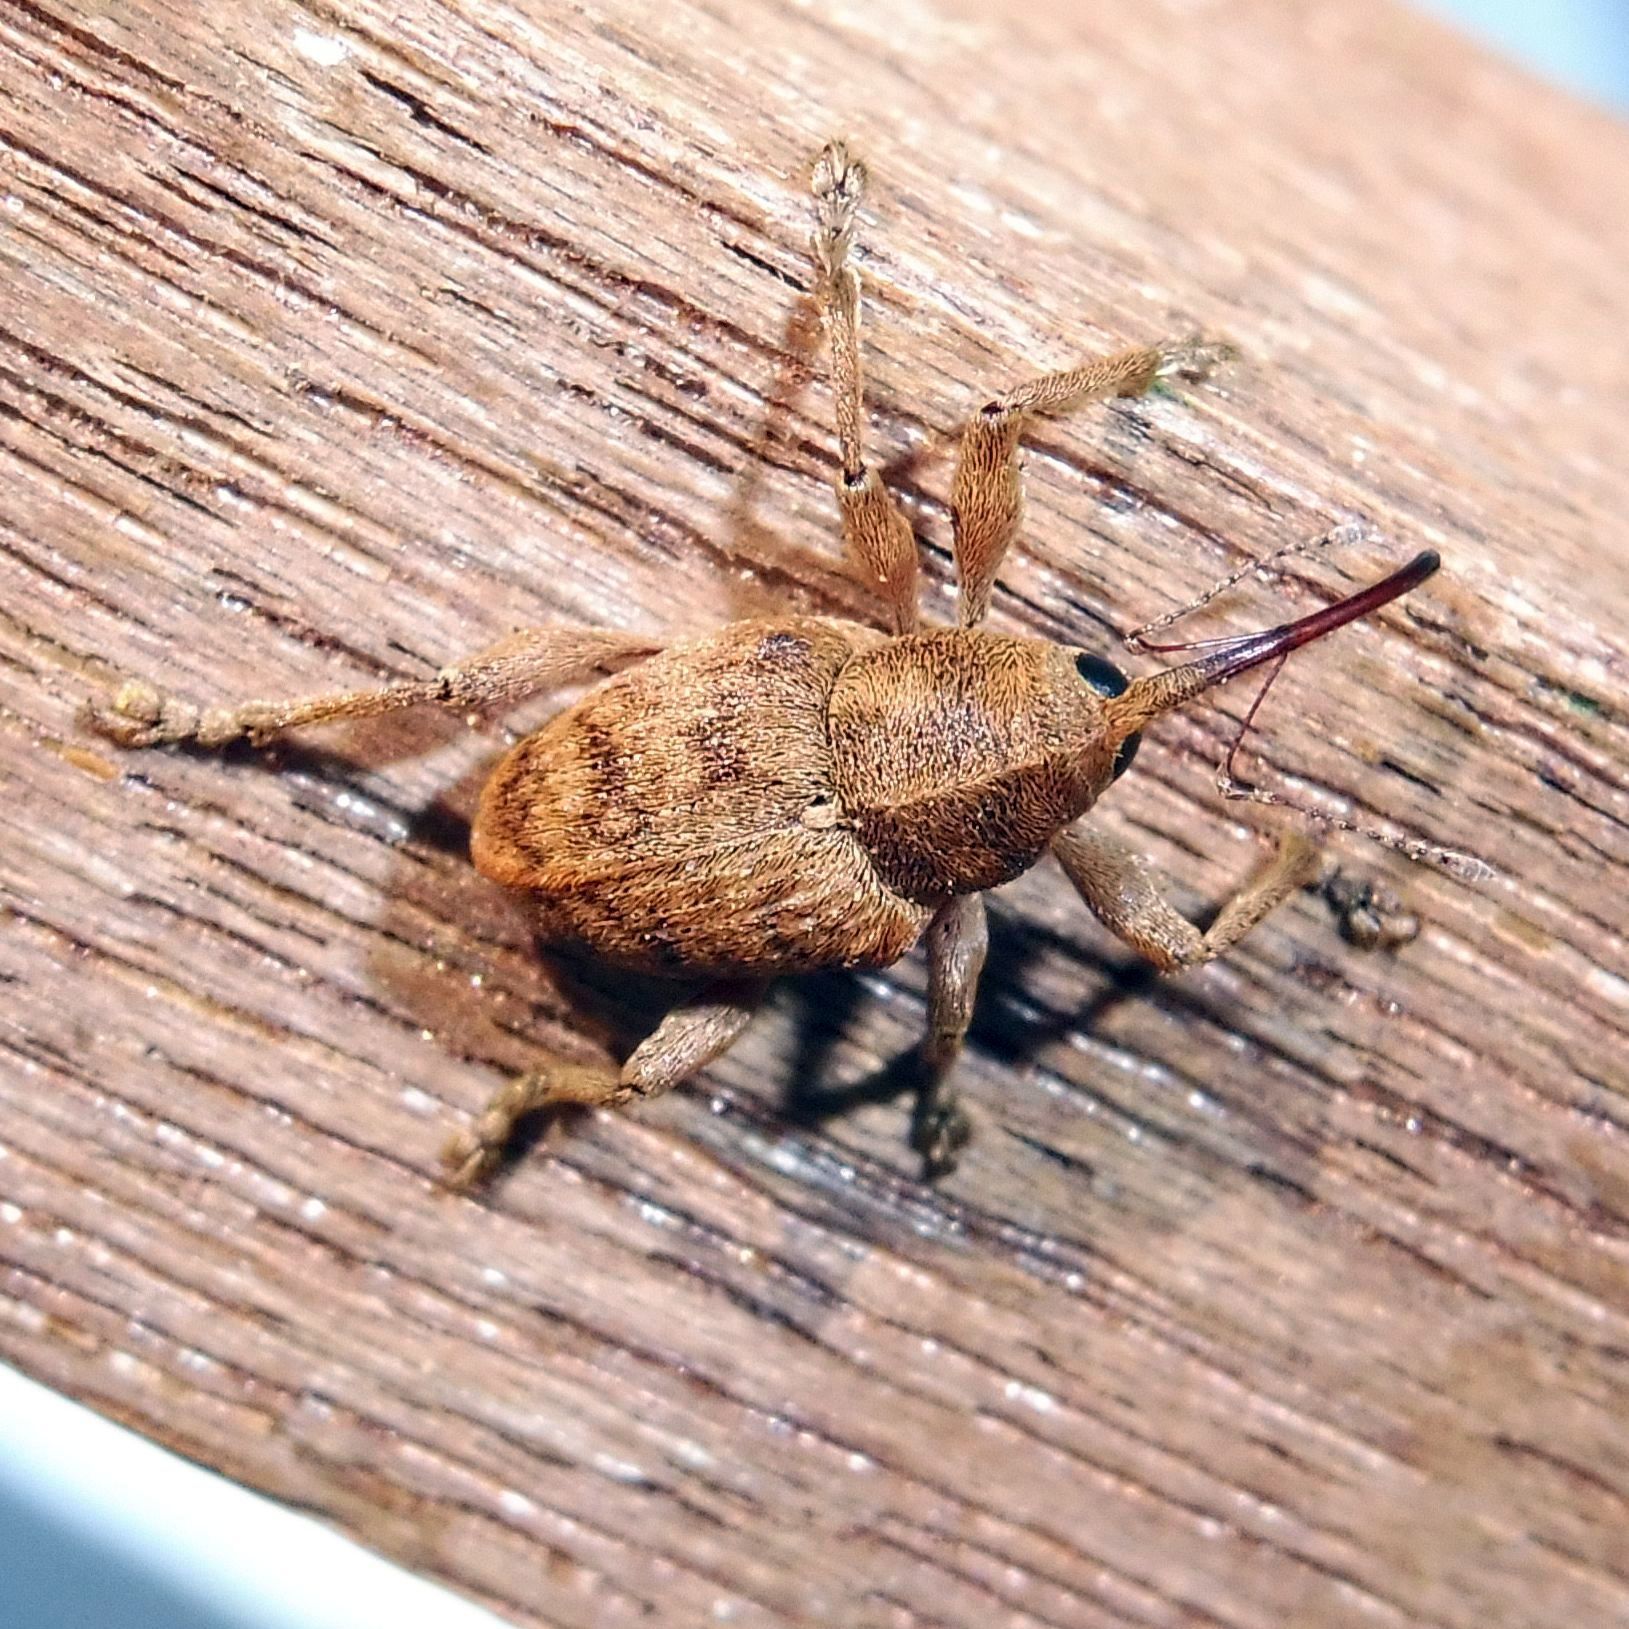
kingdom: Animalia
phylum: Arthropoda
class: Insecta
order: Coleoptera
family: Curculionidae
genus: Curculio
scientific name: Curculio venosus
